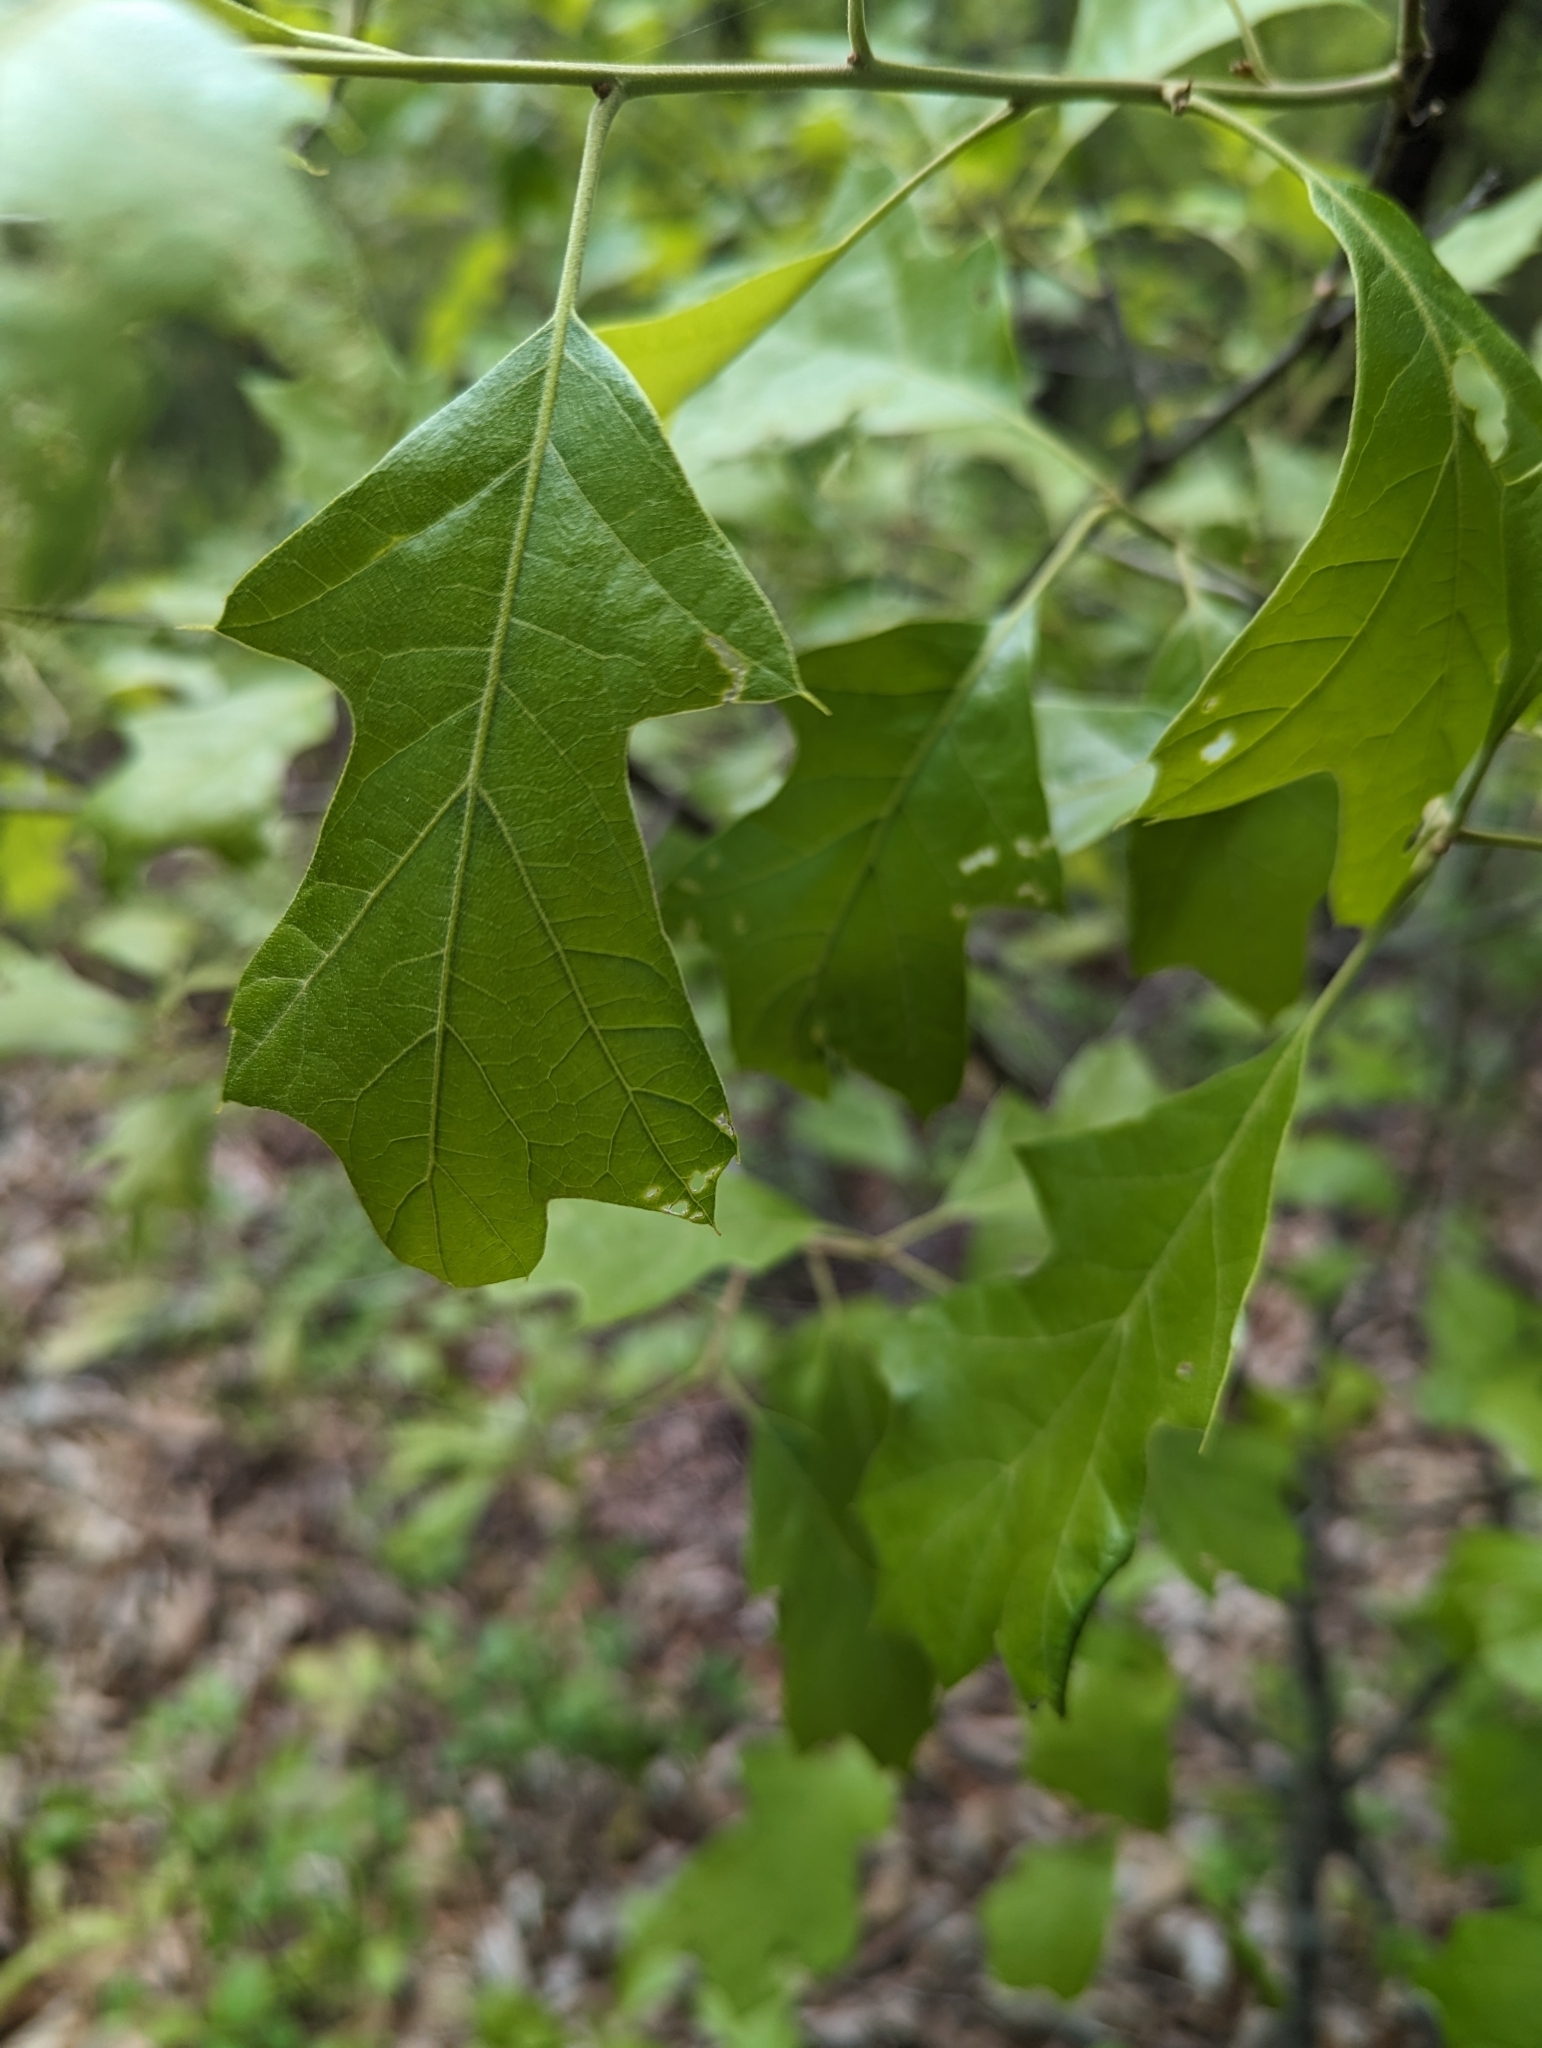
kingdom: Plantae
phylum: Tracheophyta
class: Magnoliopsida
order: Fagales
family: Fagaceae
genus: Quercus
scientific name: Quercus ilicifolia
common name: Bear oak
